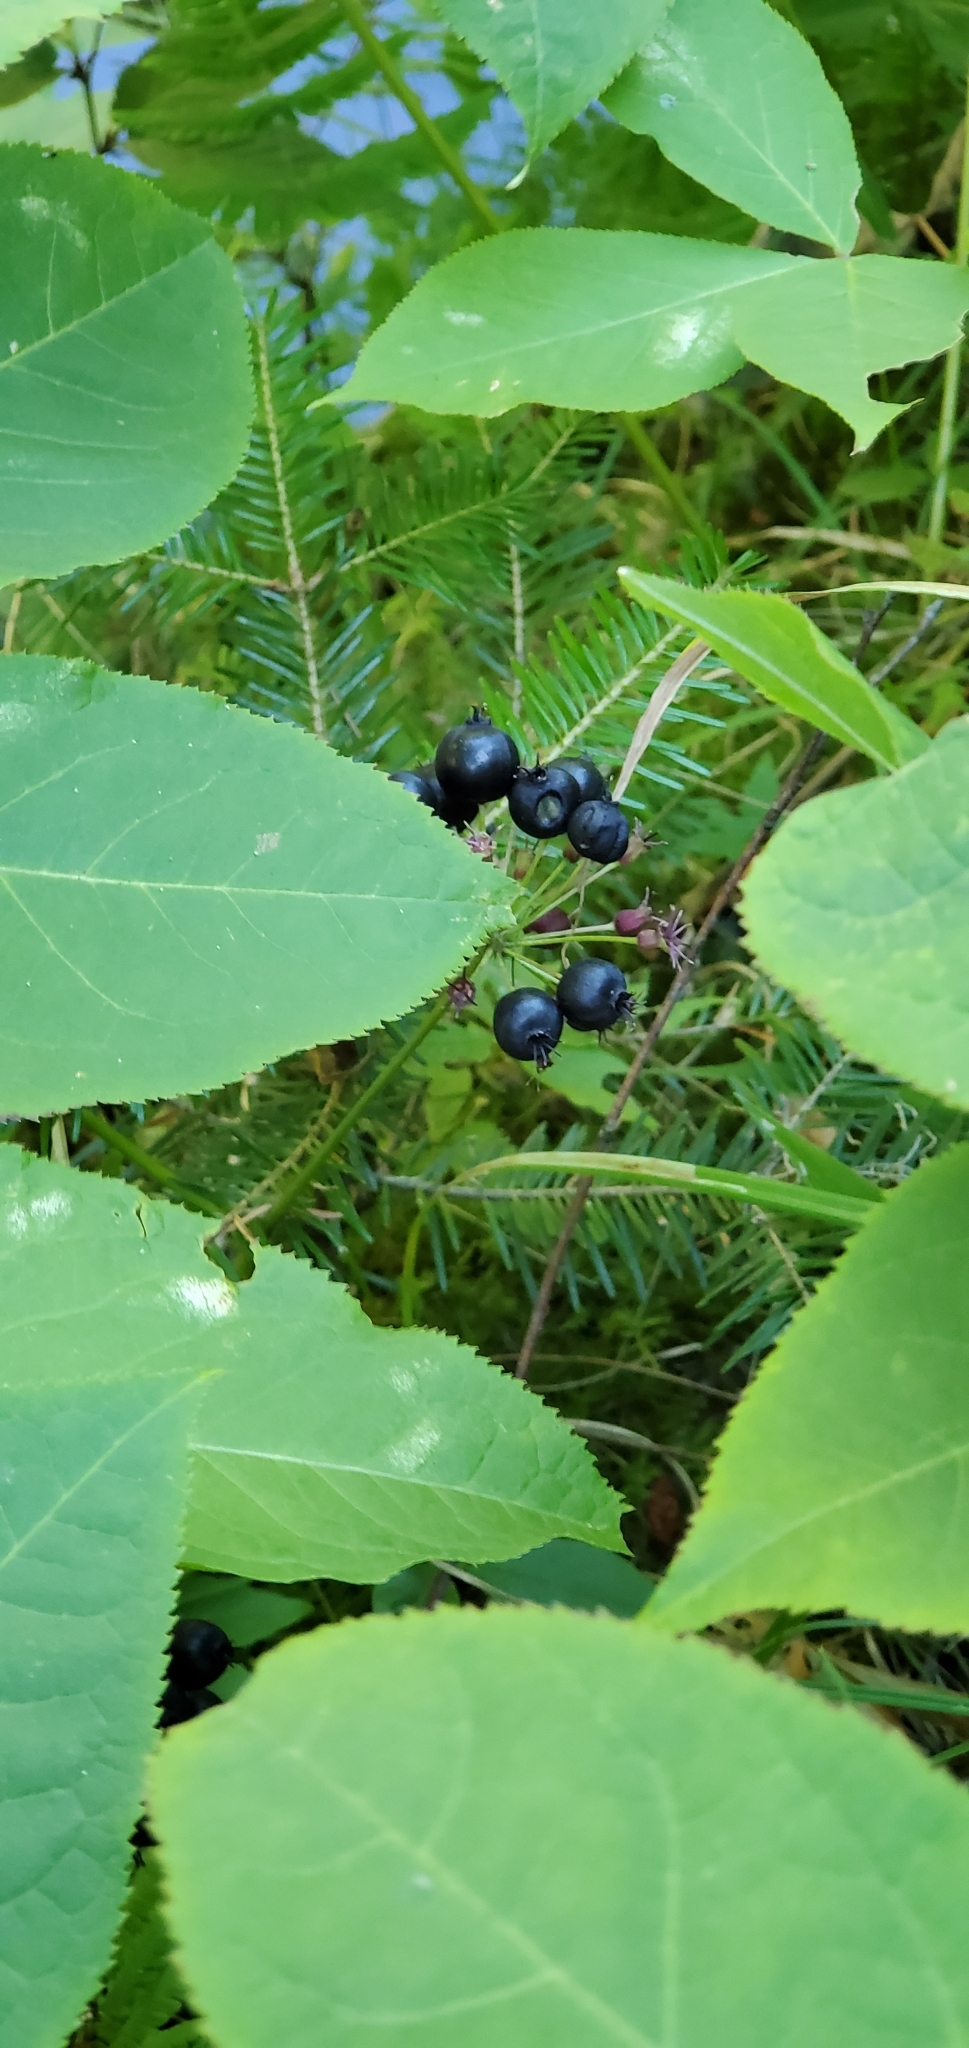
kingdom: Plantae
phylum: Tracheophyta
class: Magnoliopsida
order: Apiales
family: Araliaceae
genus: Aralia
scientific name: Aralia nudicaulis
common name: Wild sarsaparilla
